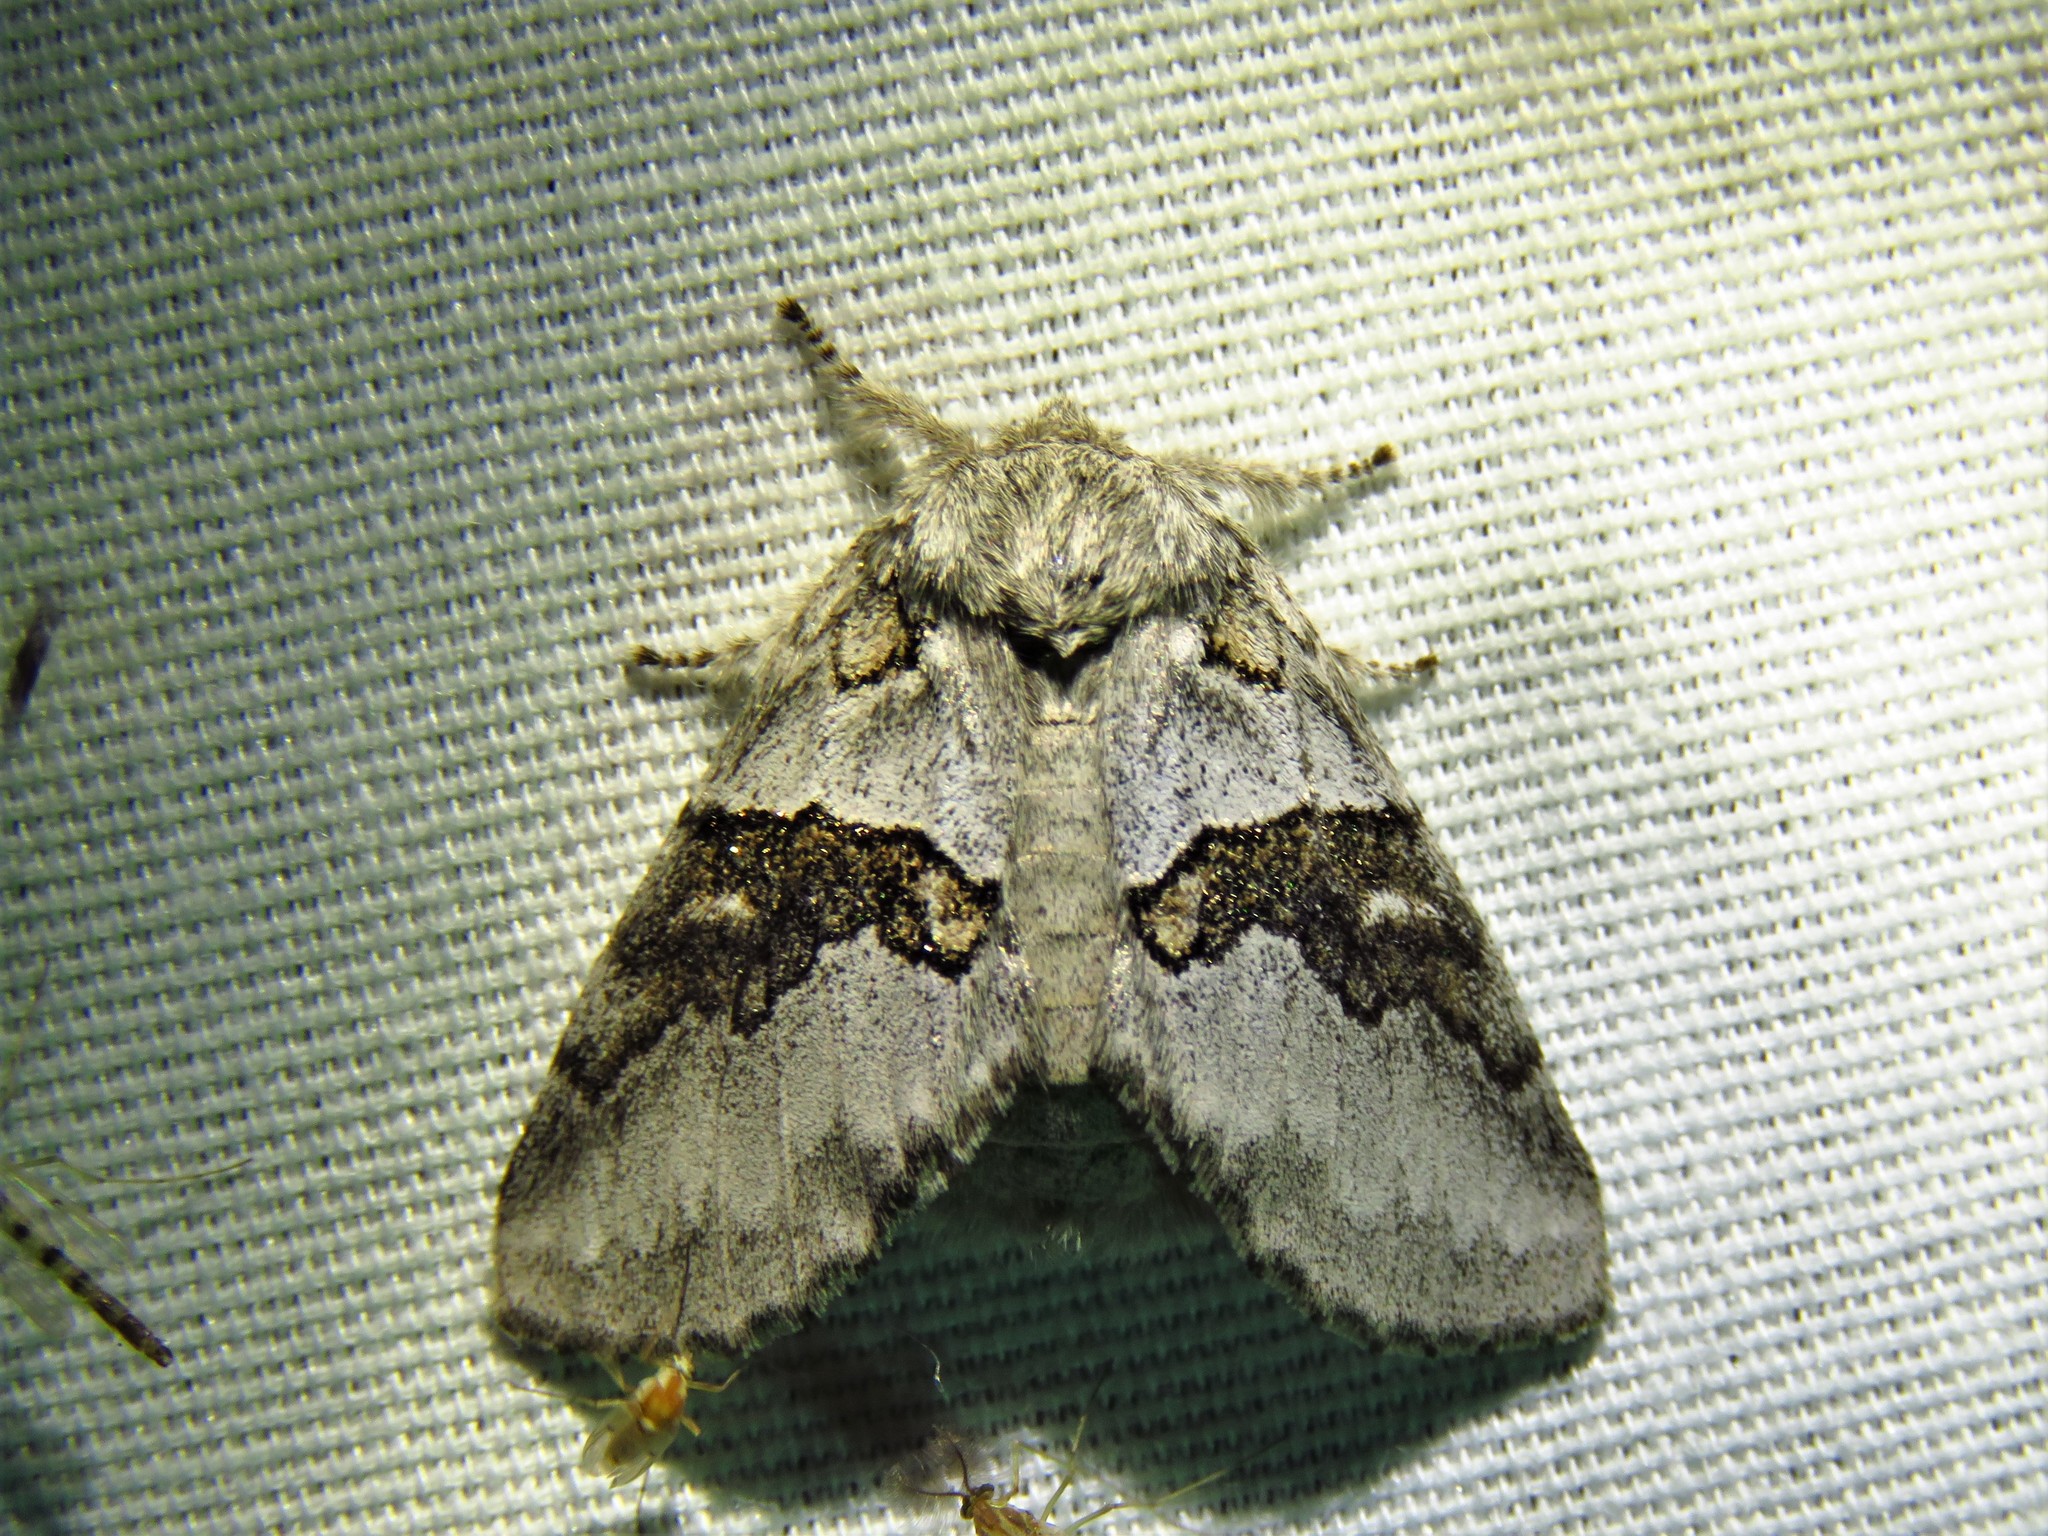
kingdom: Animalia
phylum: Arthropoda
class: Insecta
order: Lepidoptera
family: Notodontidae
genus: Gluphisia
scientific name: Gluphisia septentrionis
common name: Common gluphisia
